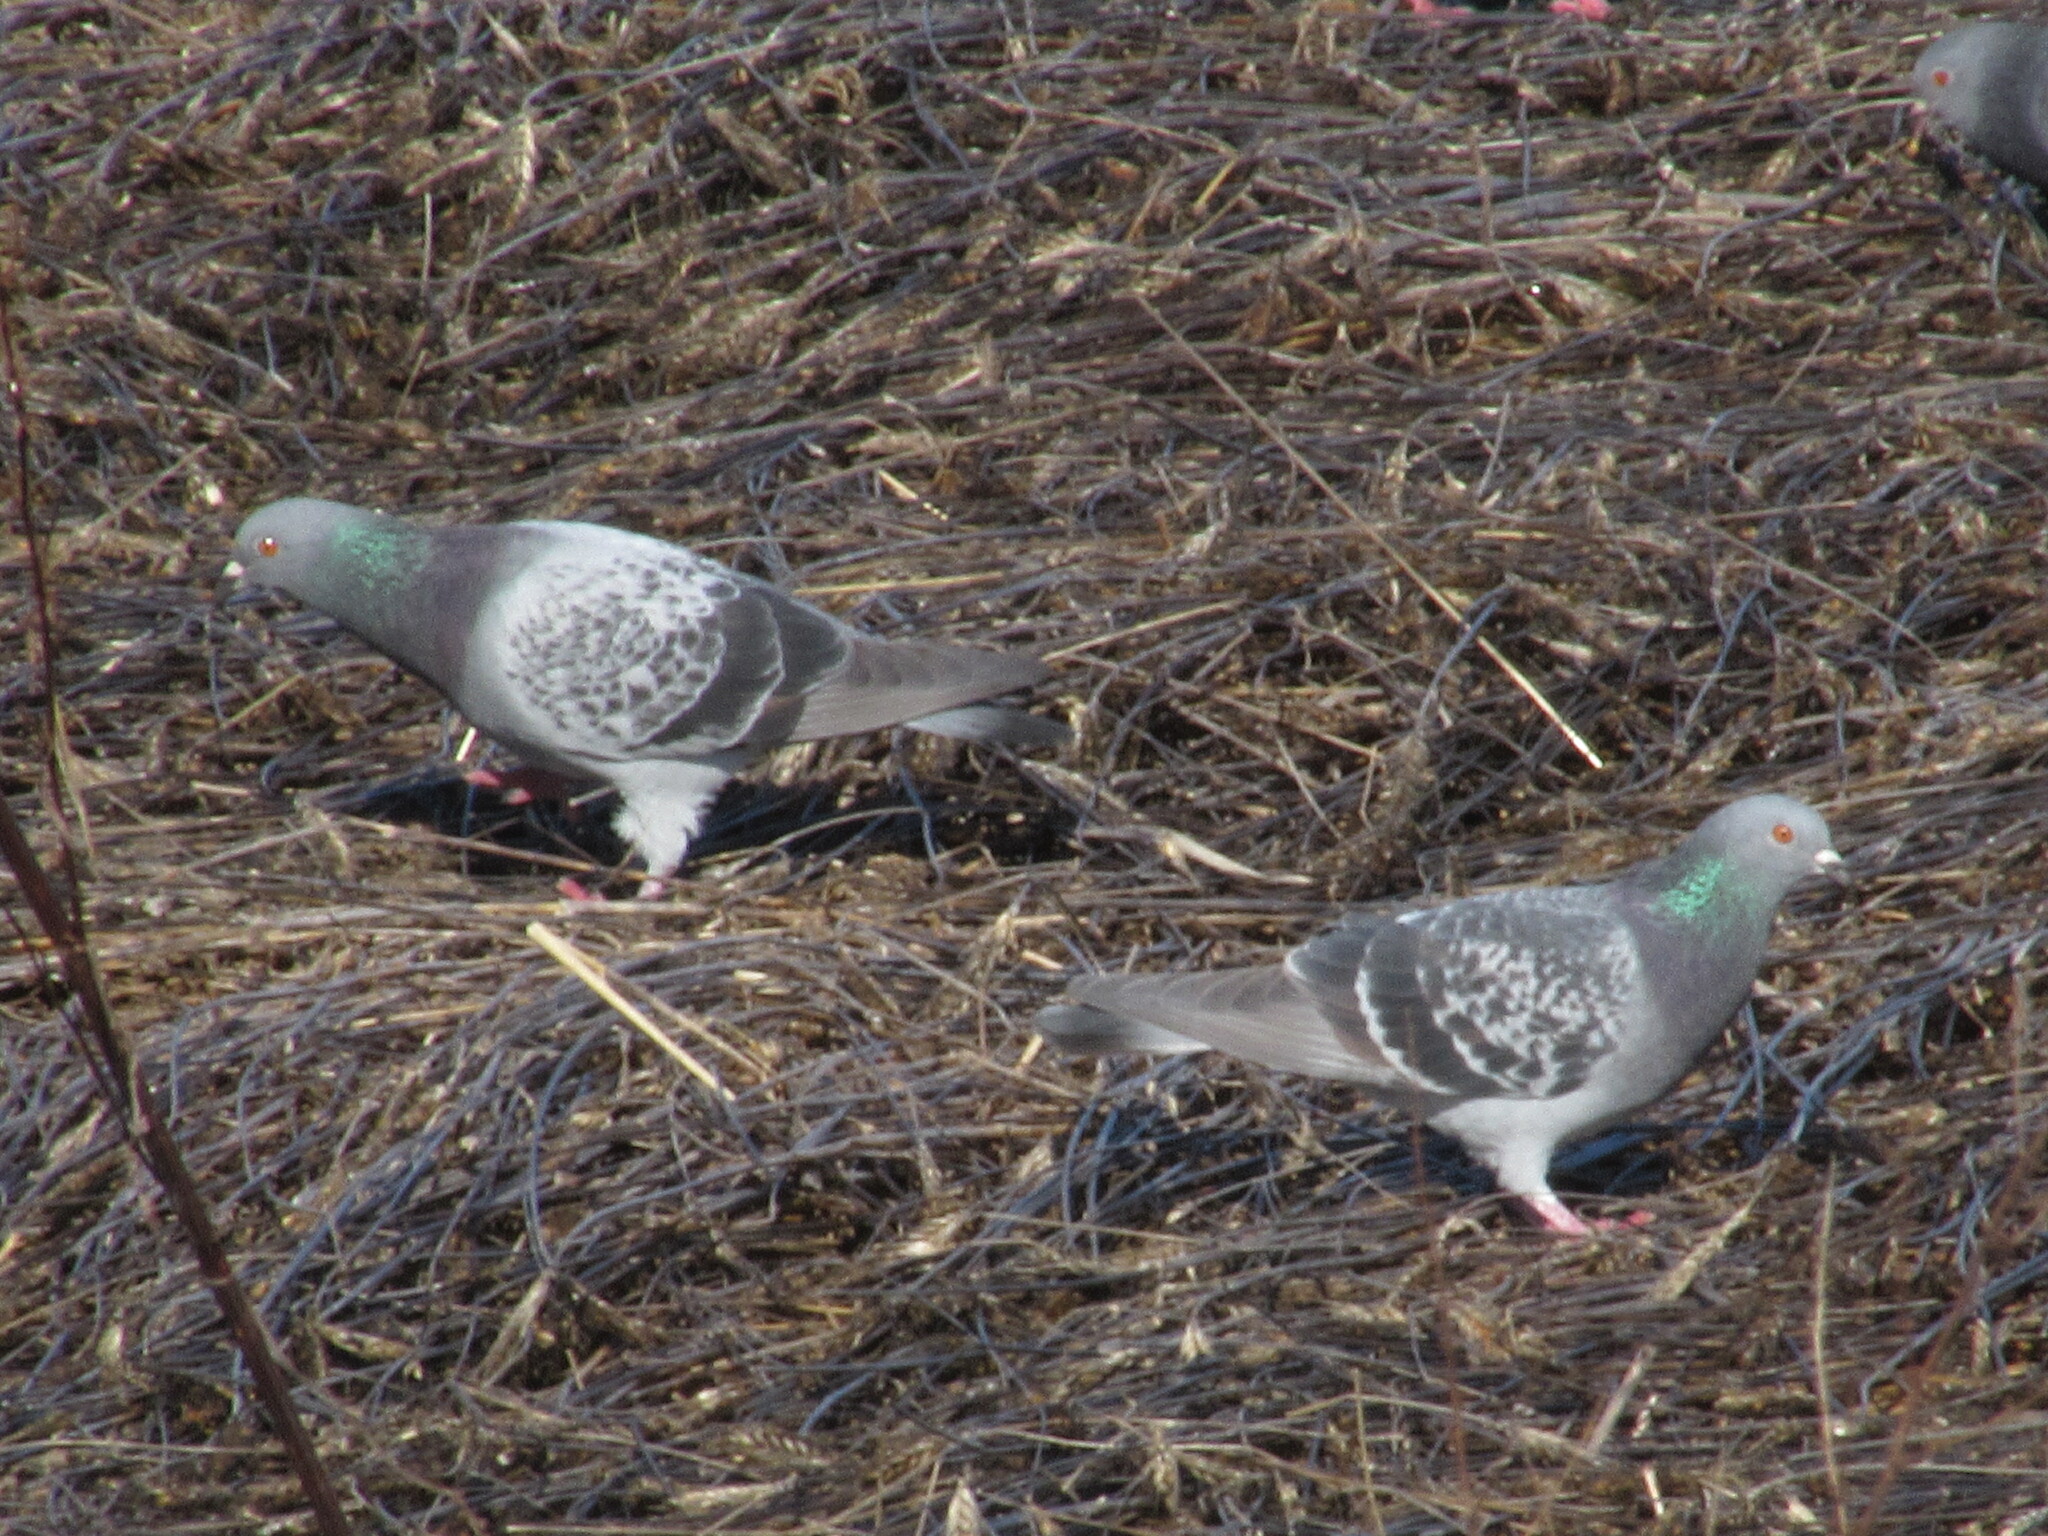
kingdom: Animalia
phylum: Chordata
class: Aves
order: Columbiformes
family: Columbidae
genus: Columba
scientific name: Columba livia
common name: Rock pigeon
